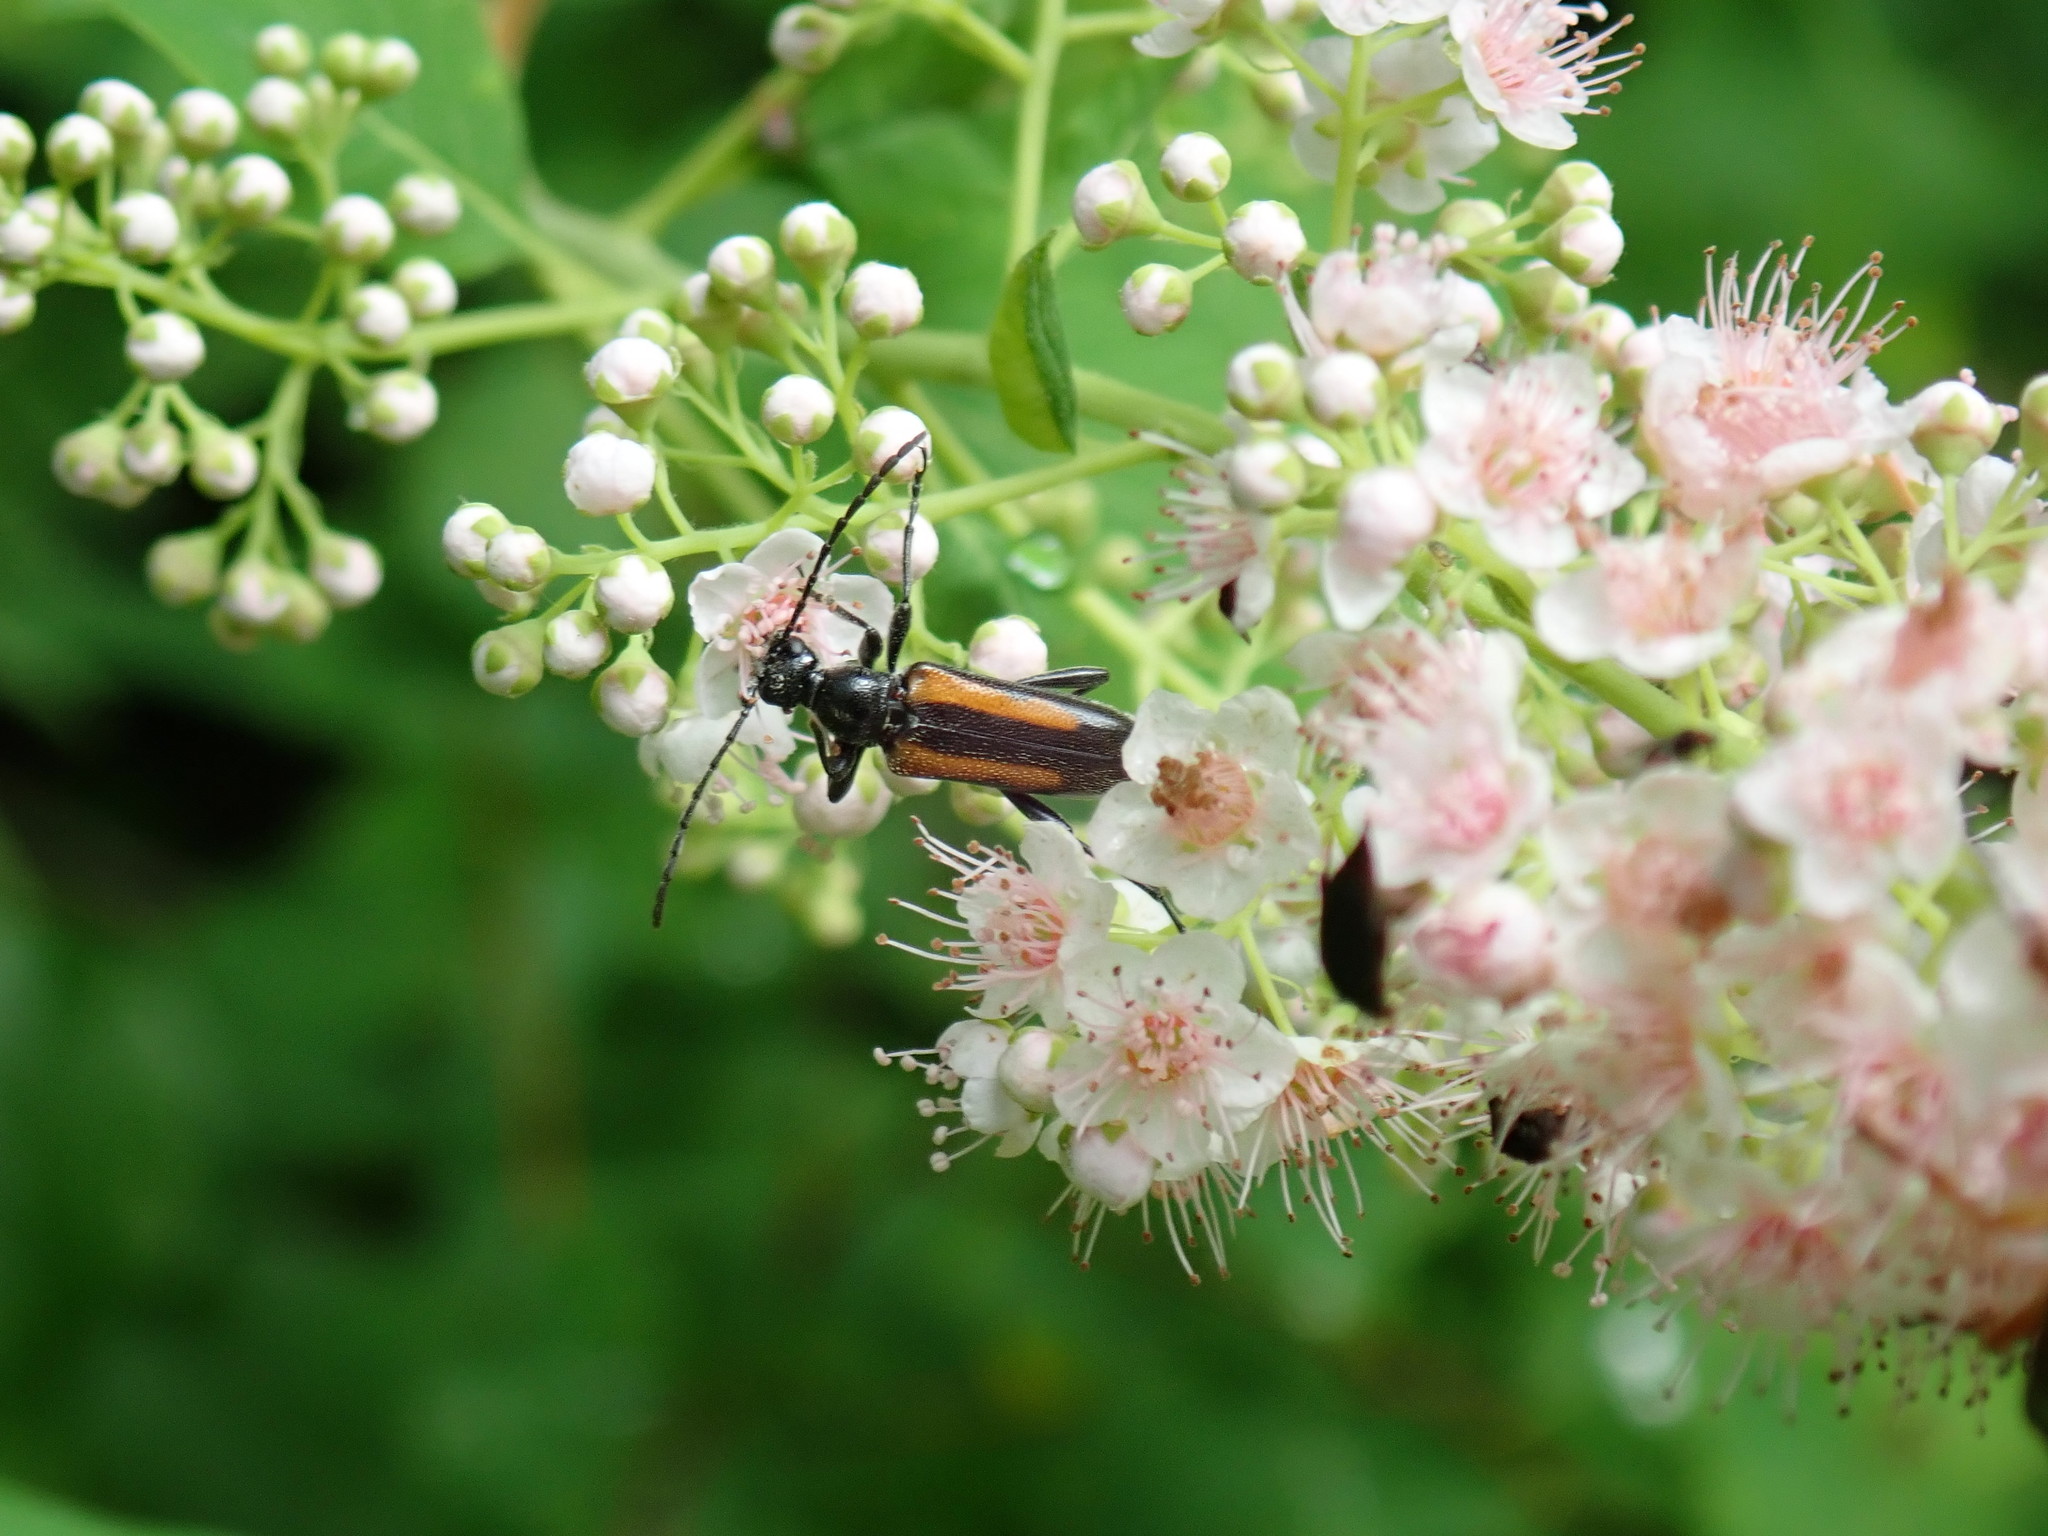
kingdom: Animalia
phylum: Arthropoda
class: Insecta
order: Coleoptera
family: Cerambycidae
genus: Strangalepta
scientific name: Strangalepta abbreviata
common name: Strangalepta flower longhorn beetle
